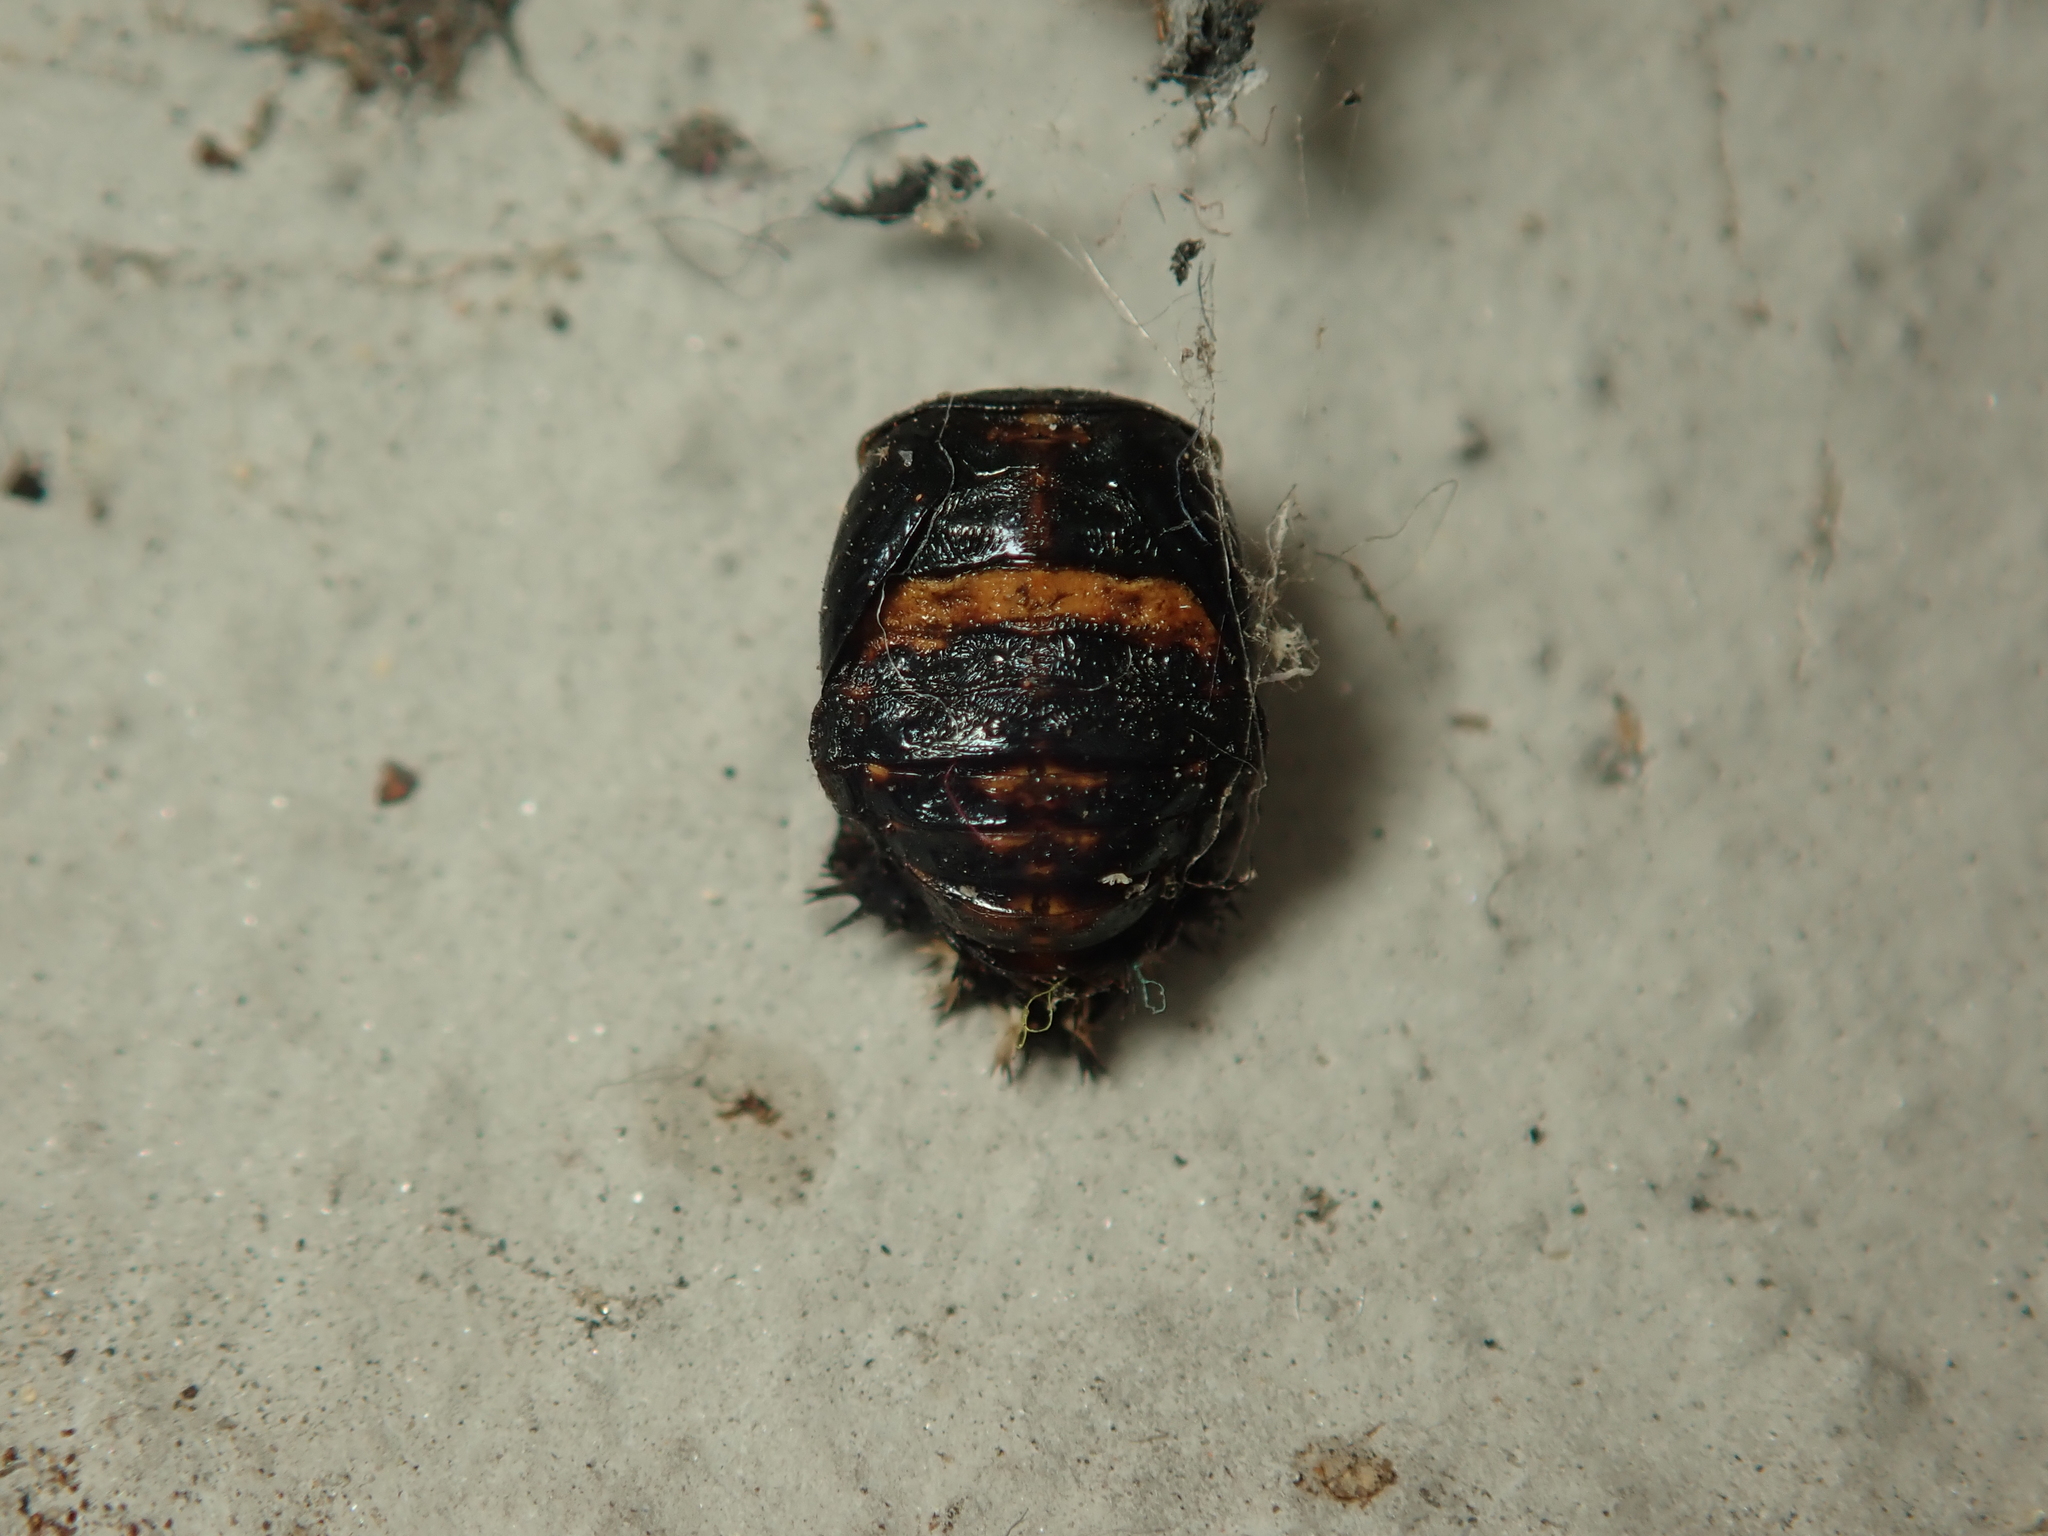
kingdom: Animalia
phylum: Arthropoda
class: Insecta
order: Coleoptera
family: Coccinellidae
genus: Harmonia
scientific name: Harmonia axyridis
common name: Harlequin ladybird
